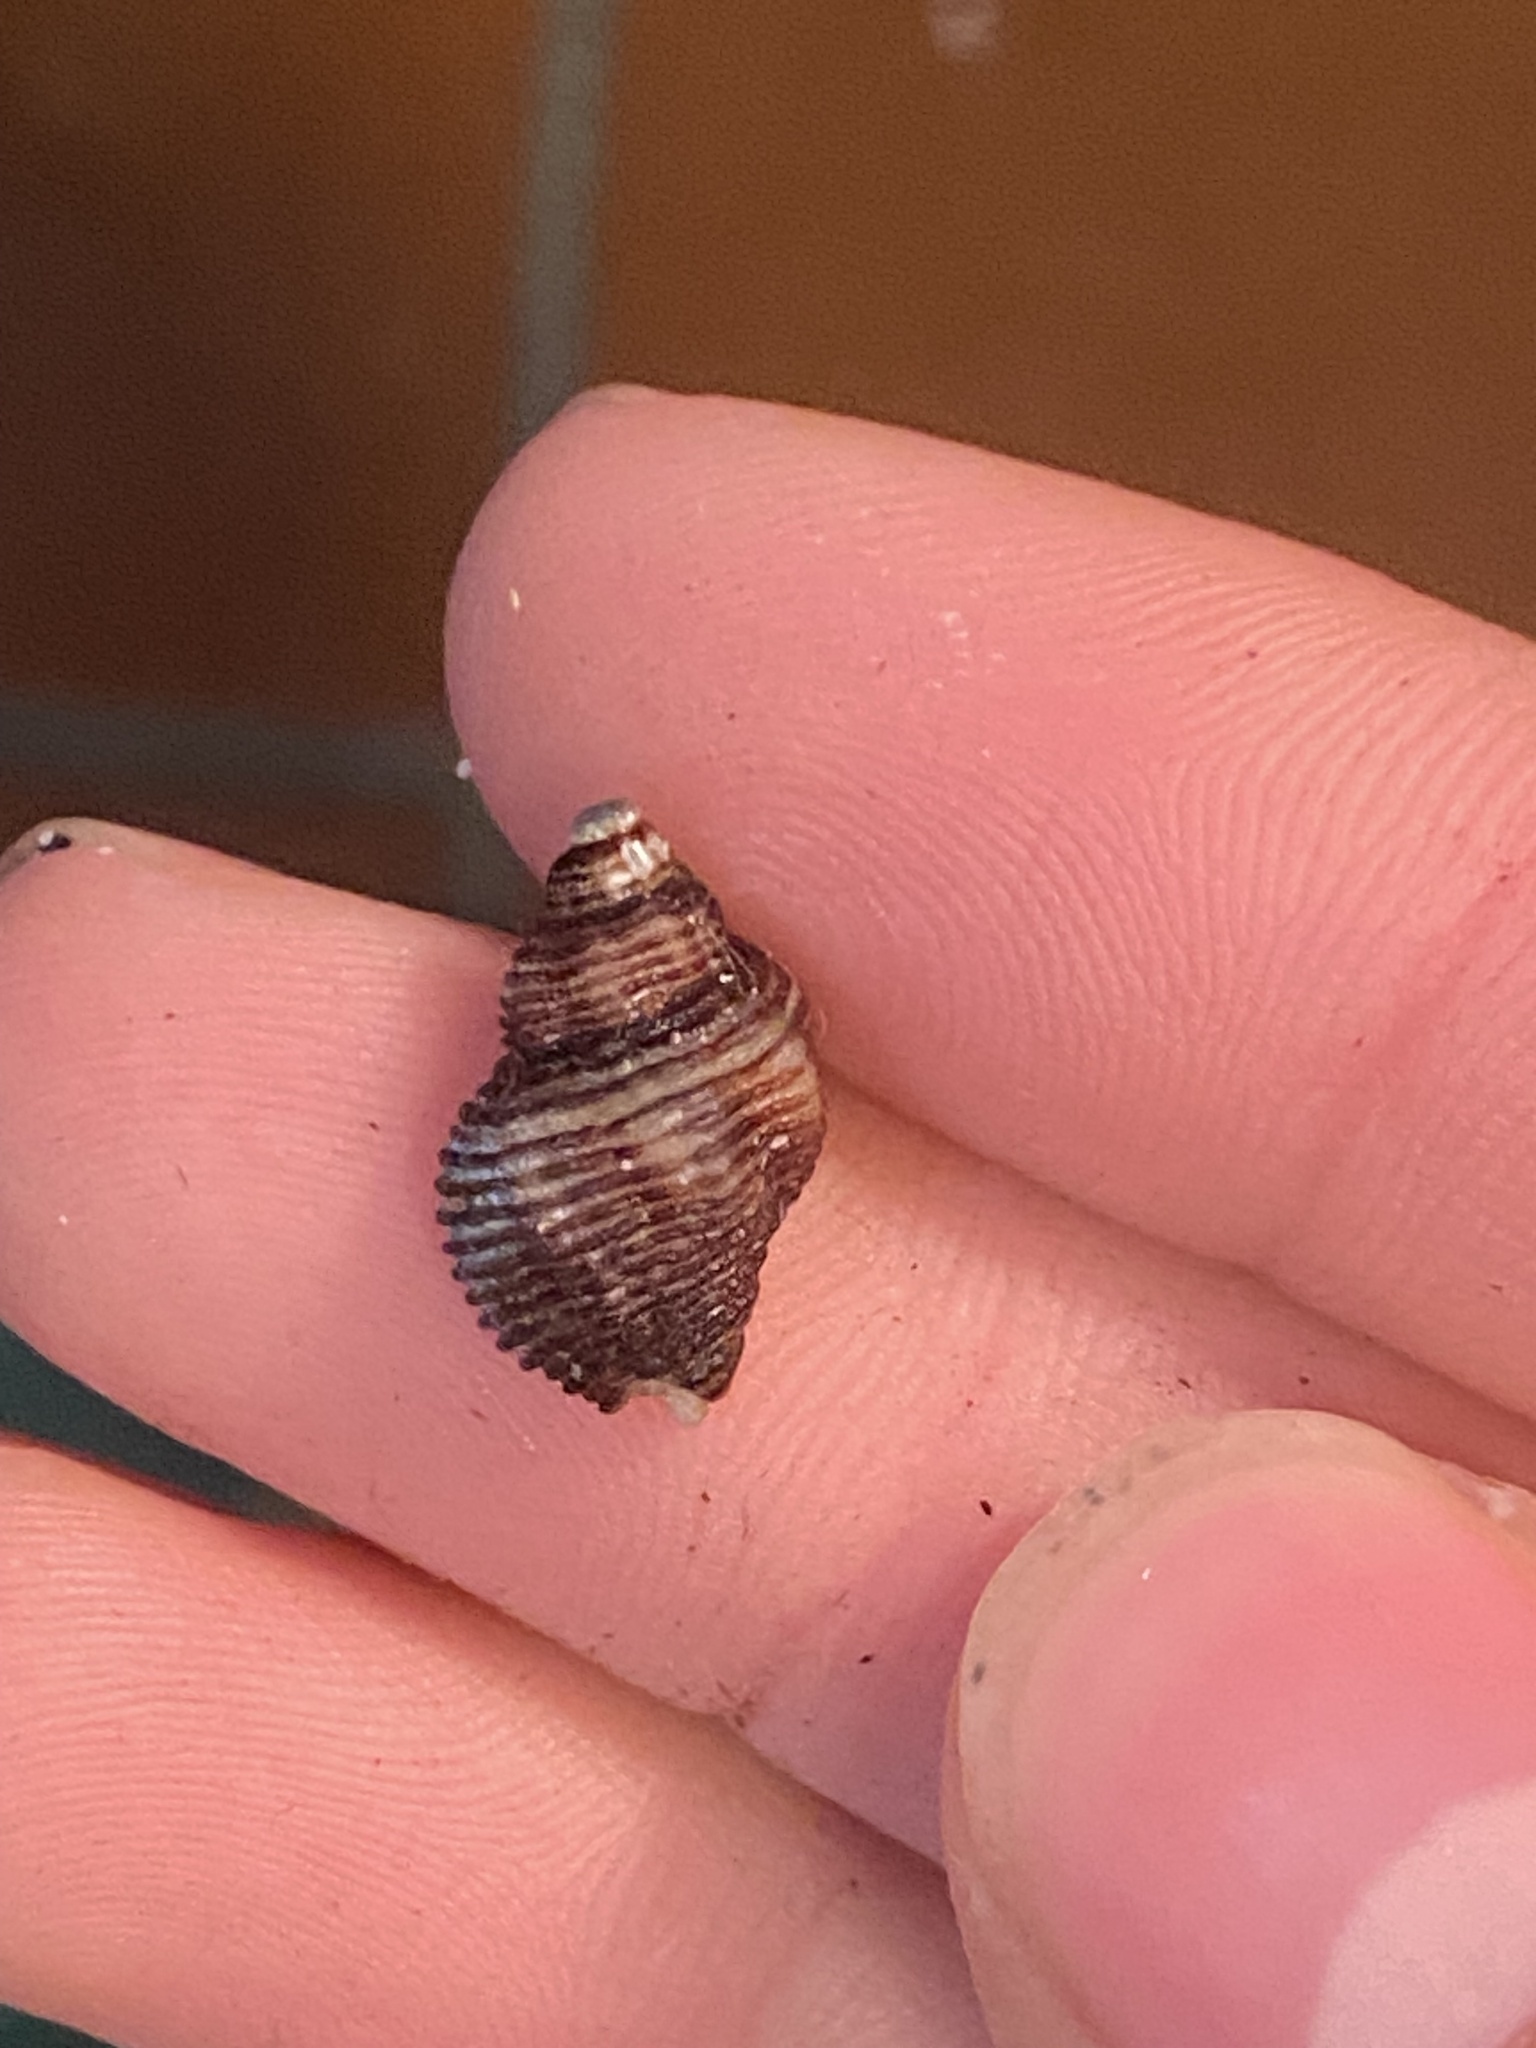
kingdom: Animalia
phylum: Mollusca
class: Gastropoda
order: Neogastropoda
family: Muricidae
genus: Paciocinebrina
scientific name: Paciocinebrina lurida
